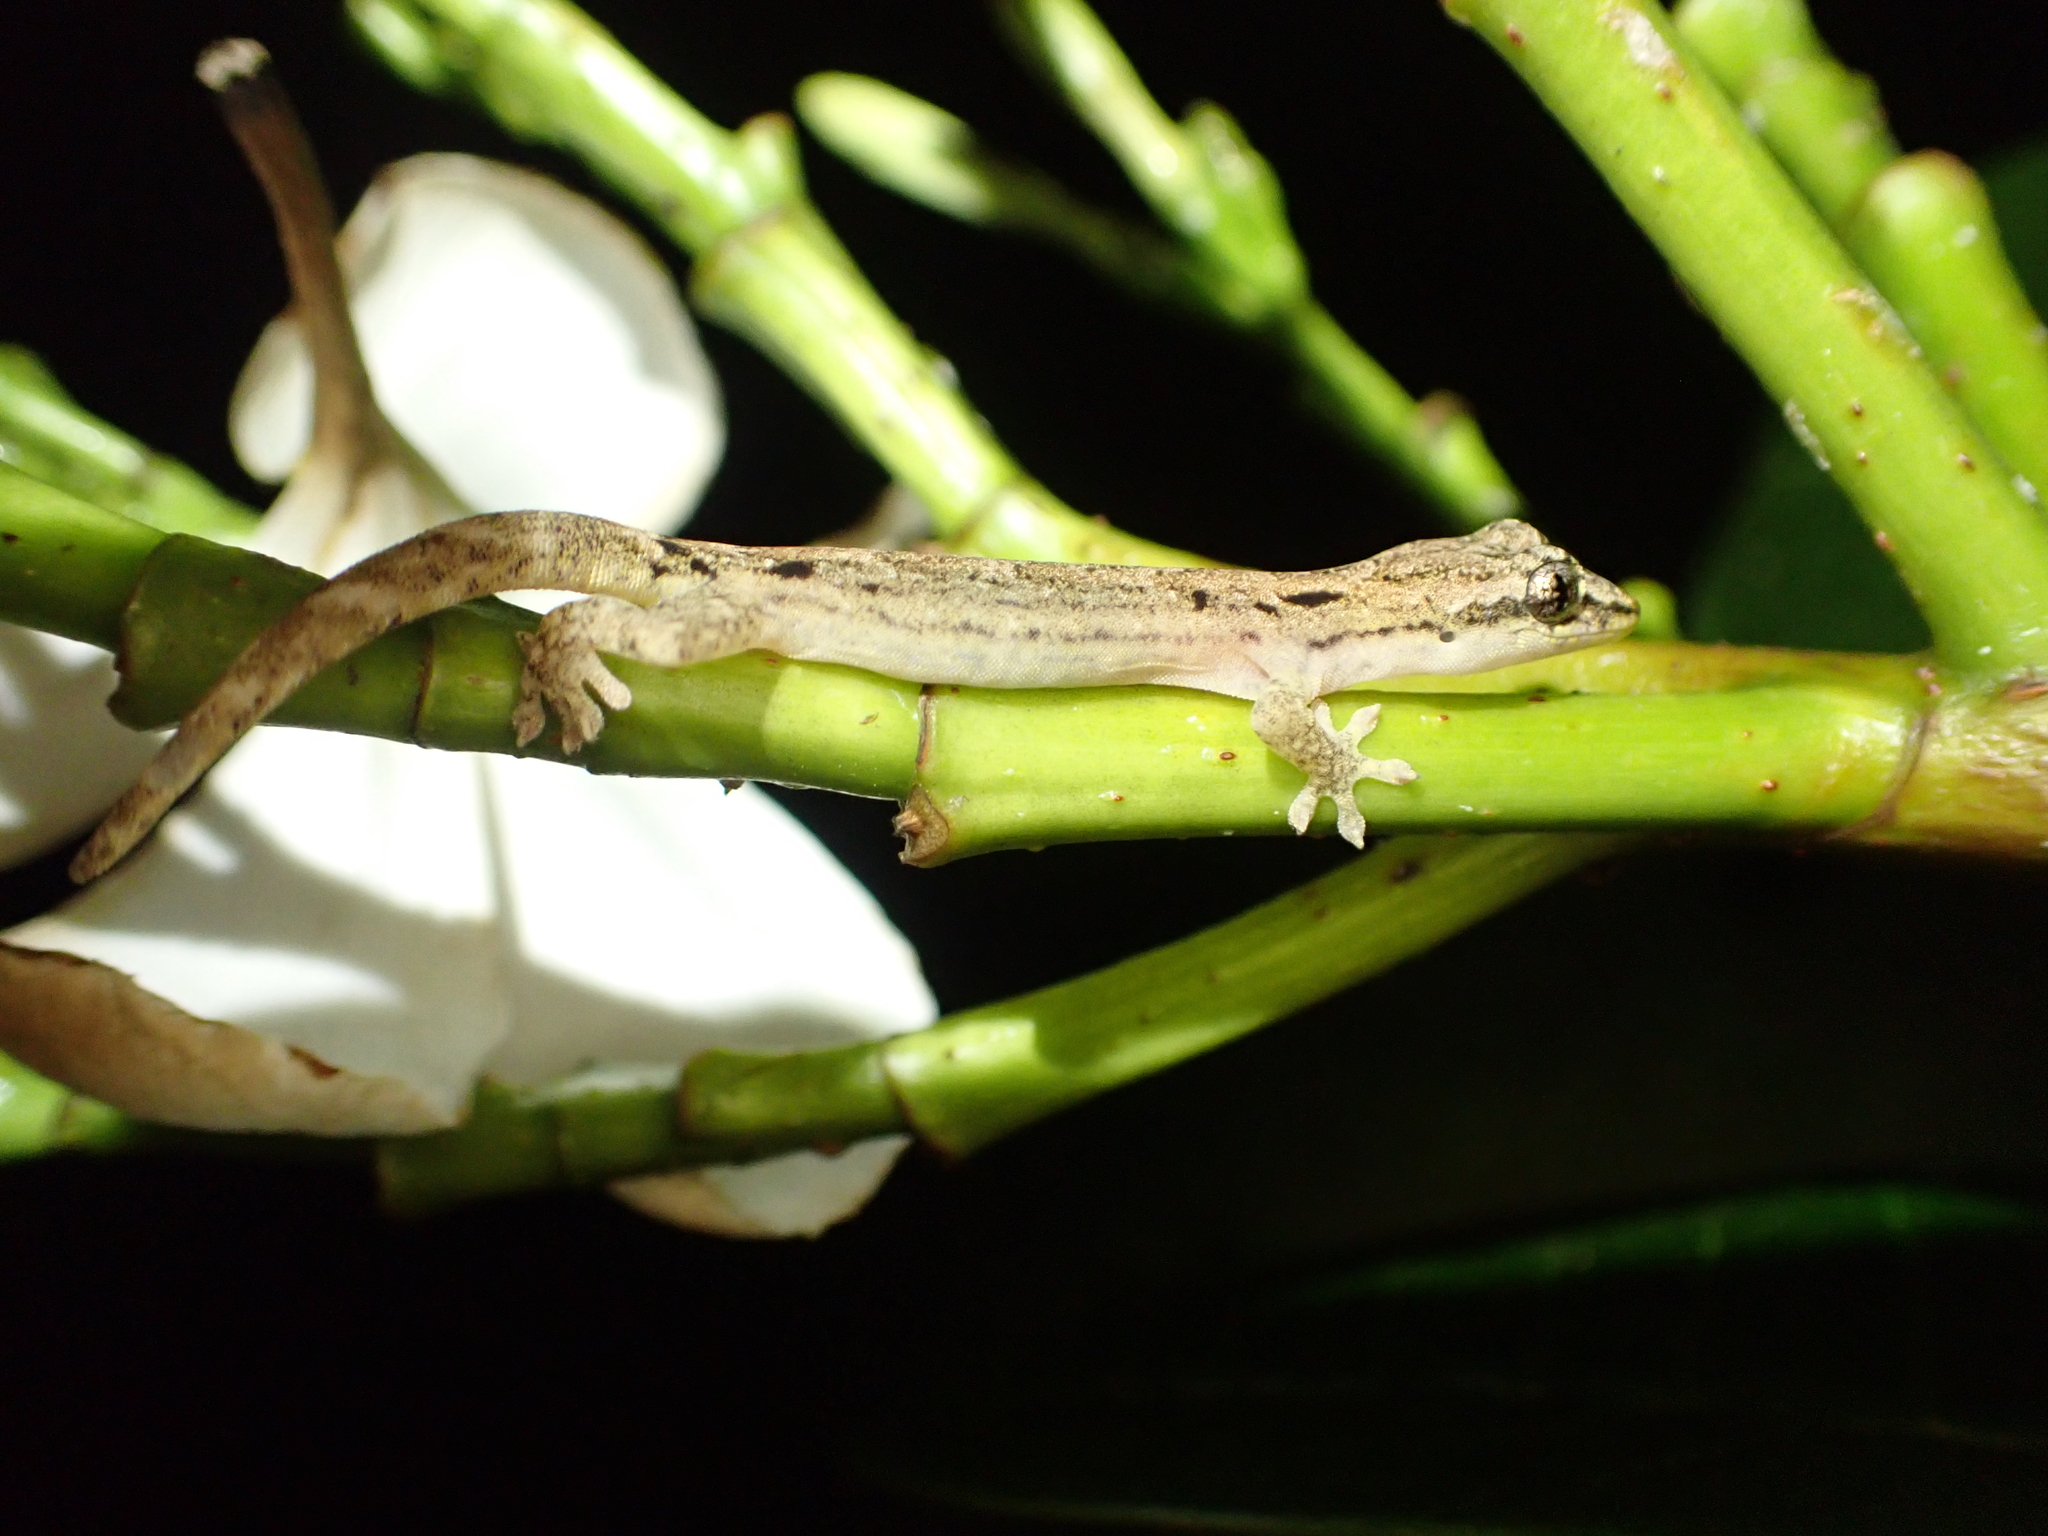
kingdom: Animalia
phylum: Chordata
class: Squamata
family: Gekkonidae
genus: Lepidodactylus
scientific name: Lepidodactylus lugubris
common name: Mourning gecko
